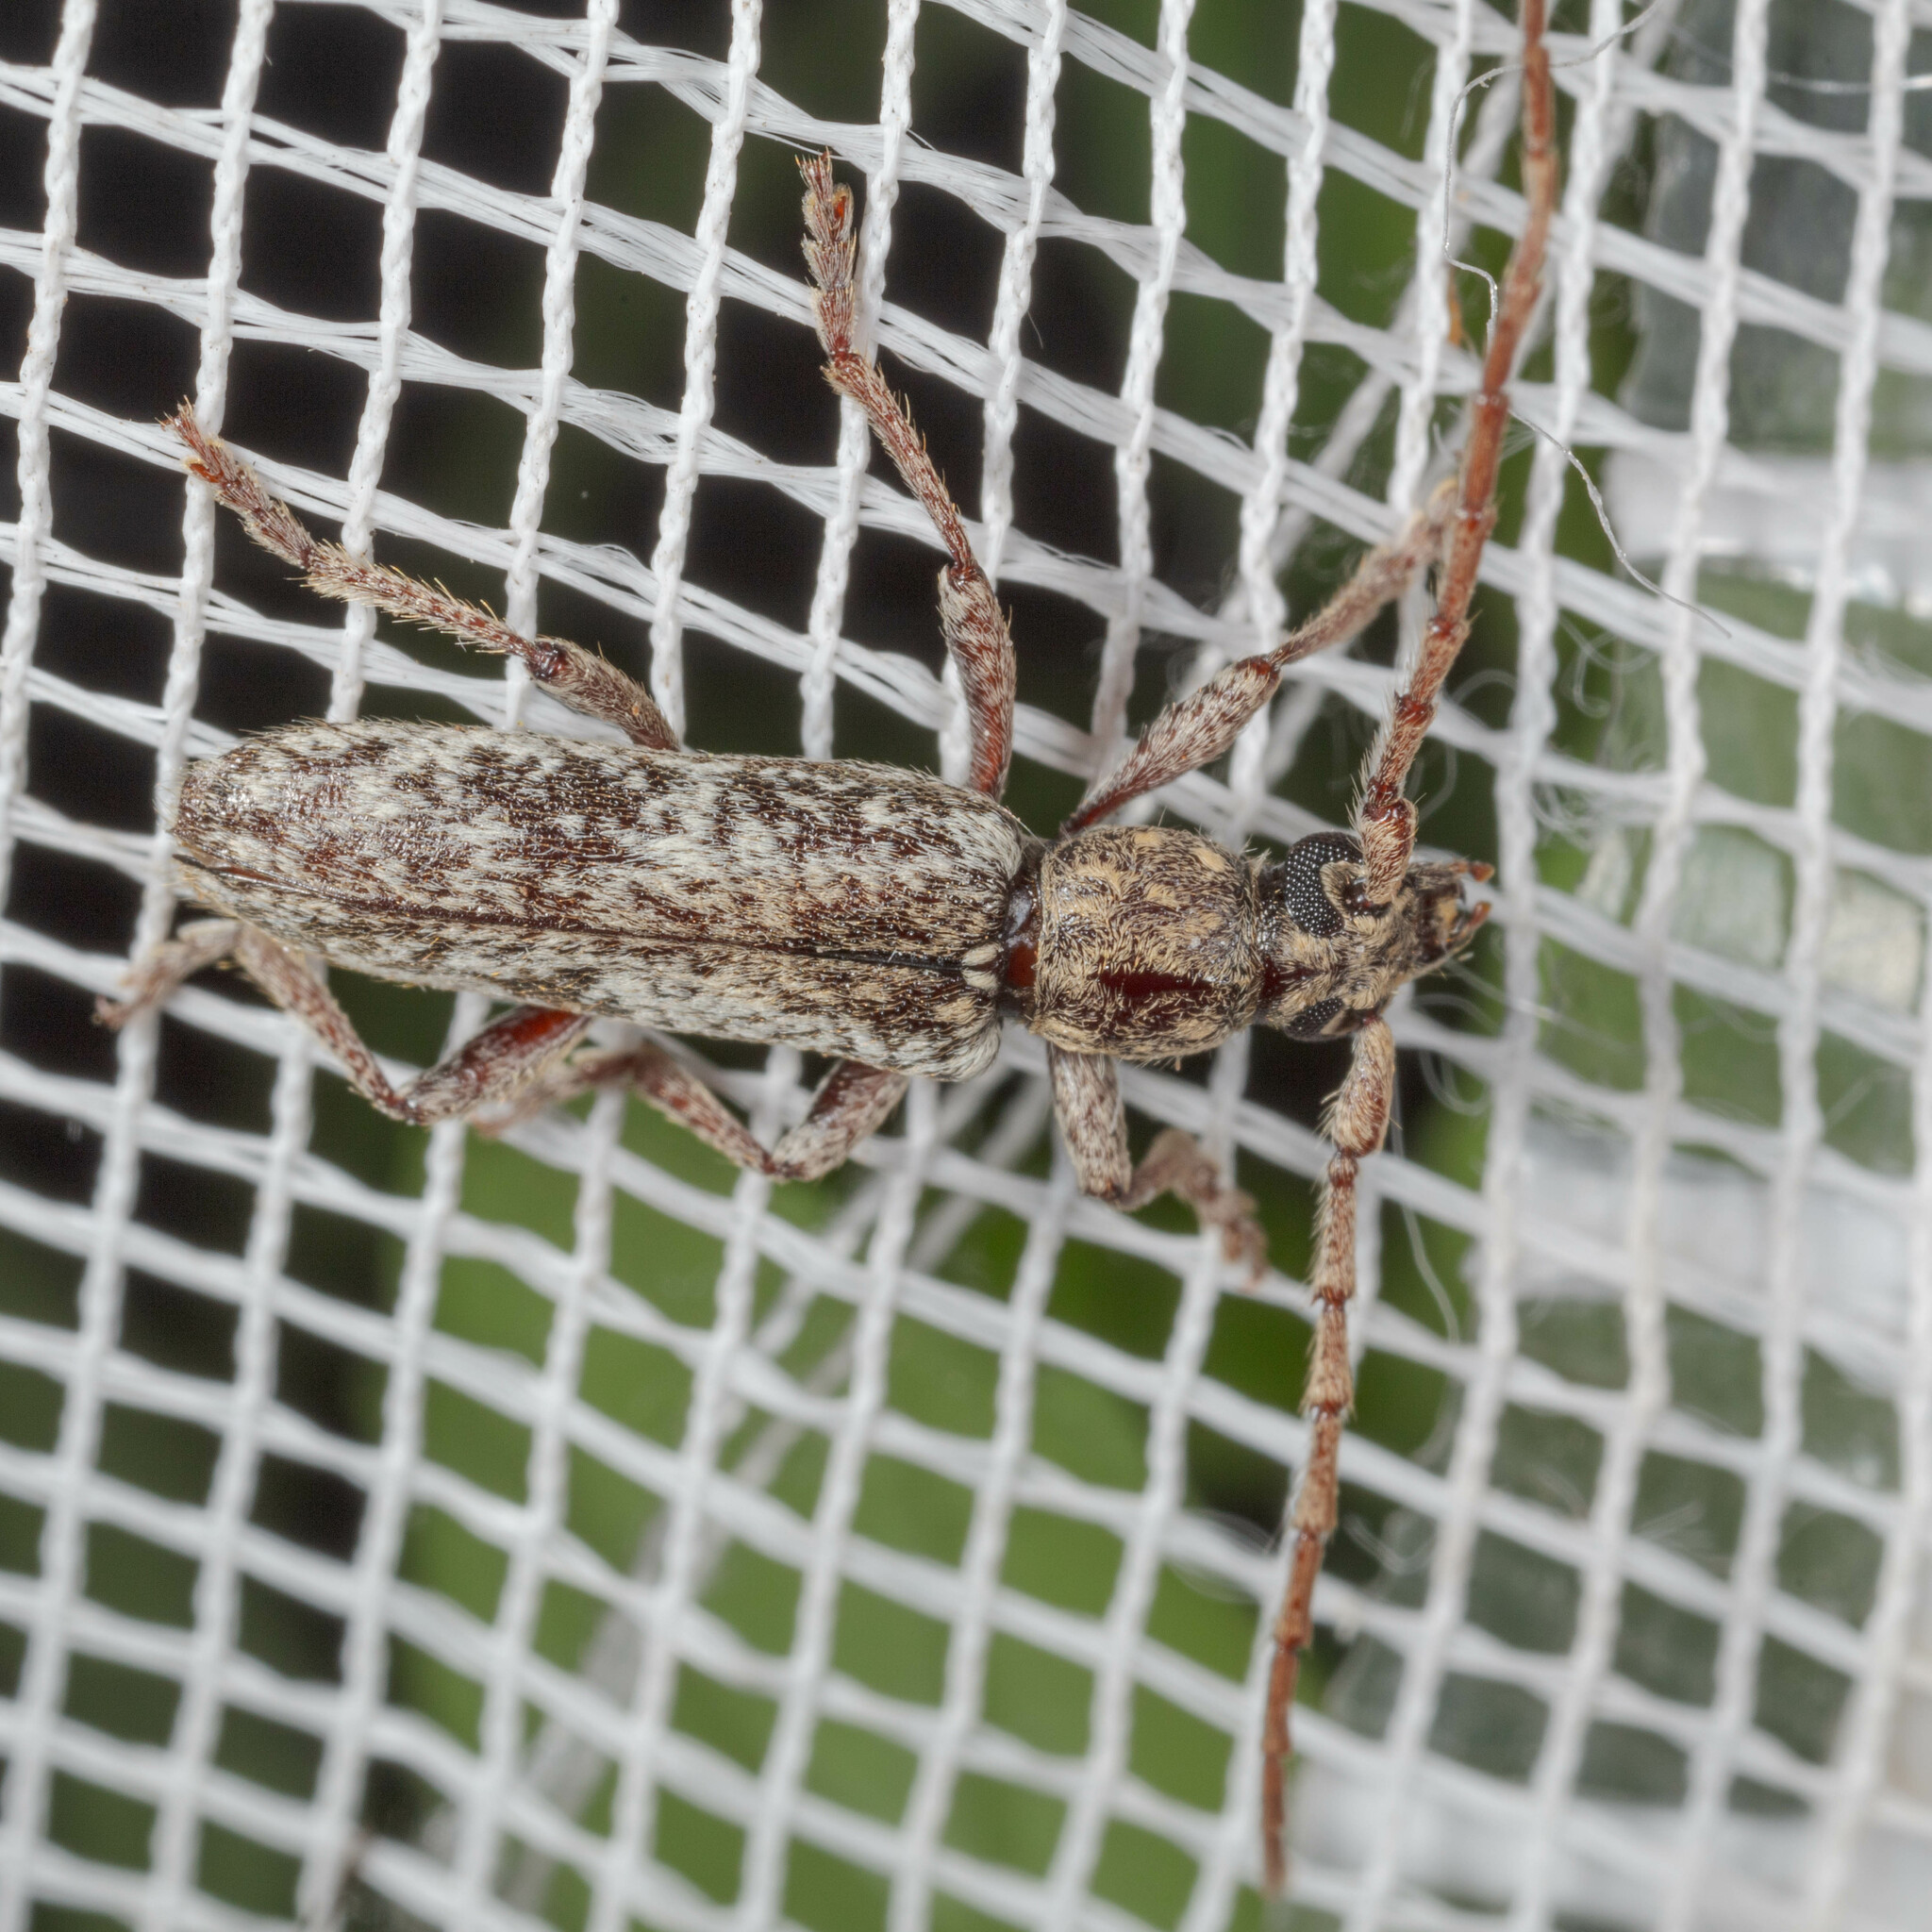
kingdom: Animalia
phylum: Arthropoda
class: Insecta
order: Coleoptera
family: Cerambycidae
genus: Anelaphus
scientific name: Anelaphus debilis
